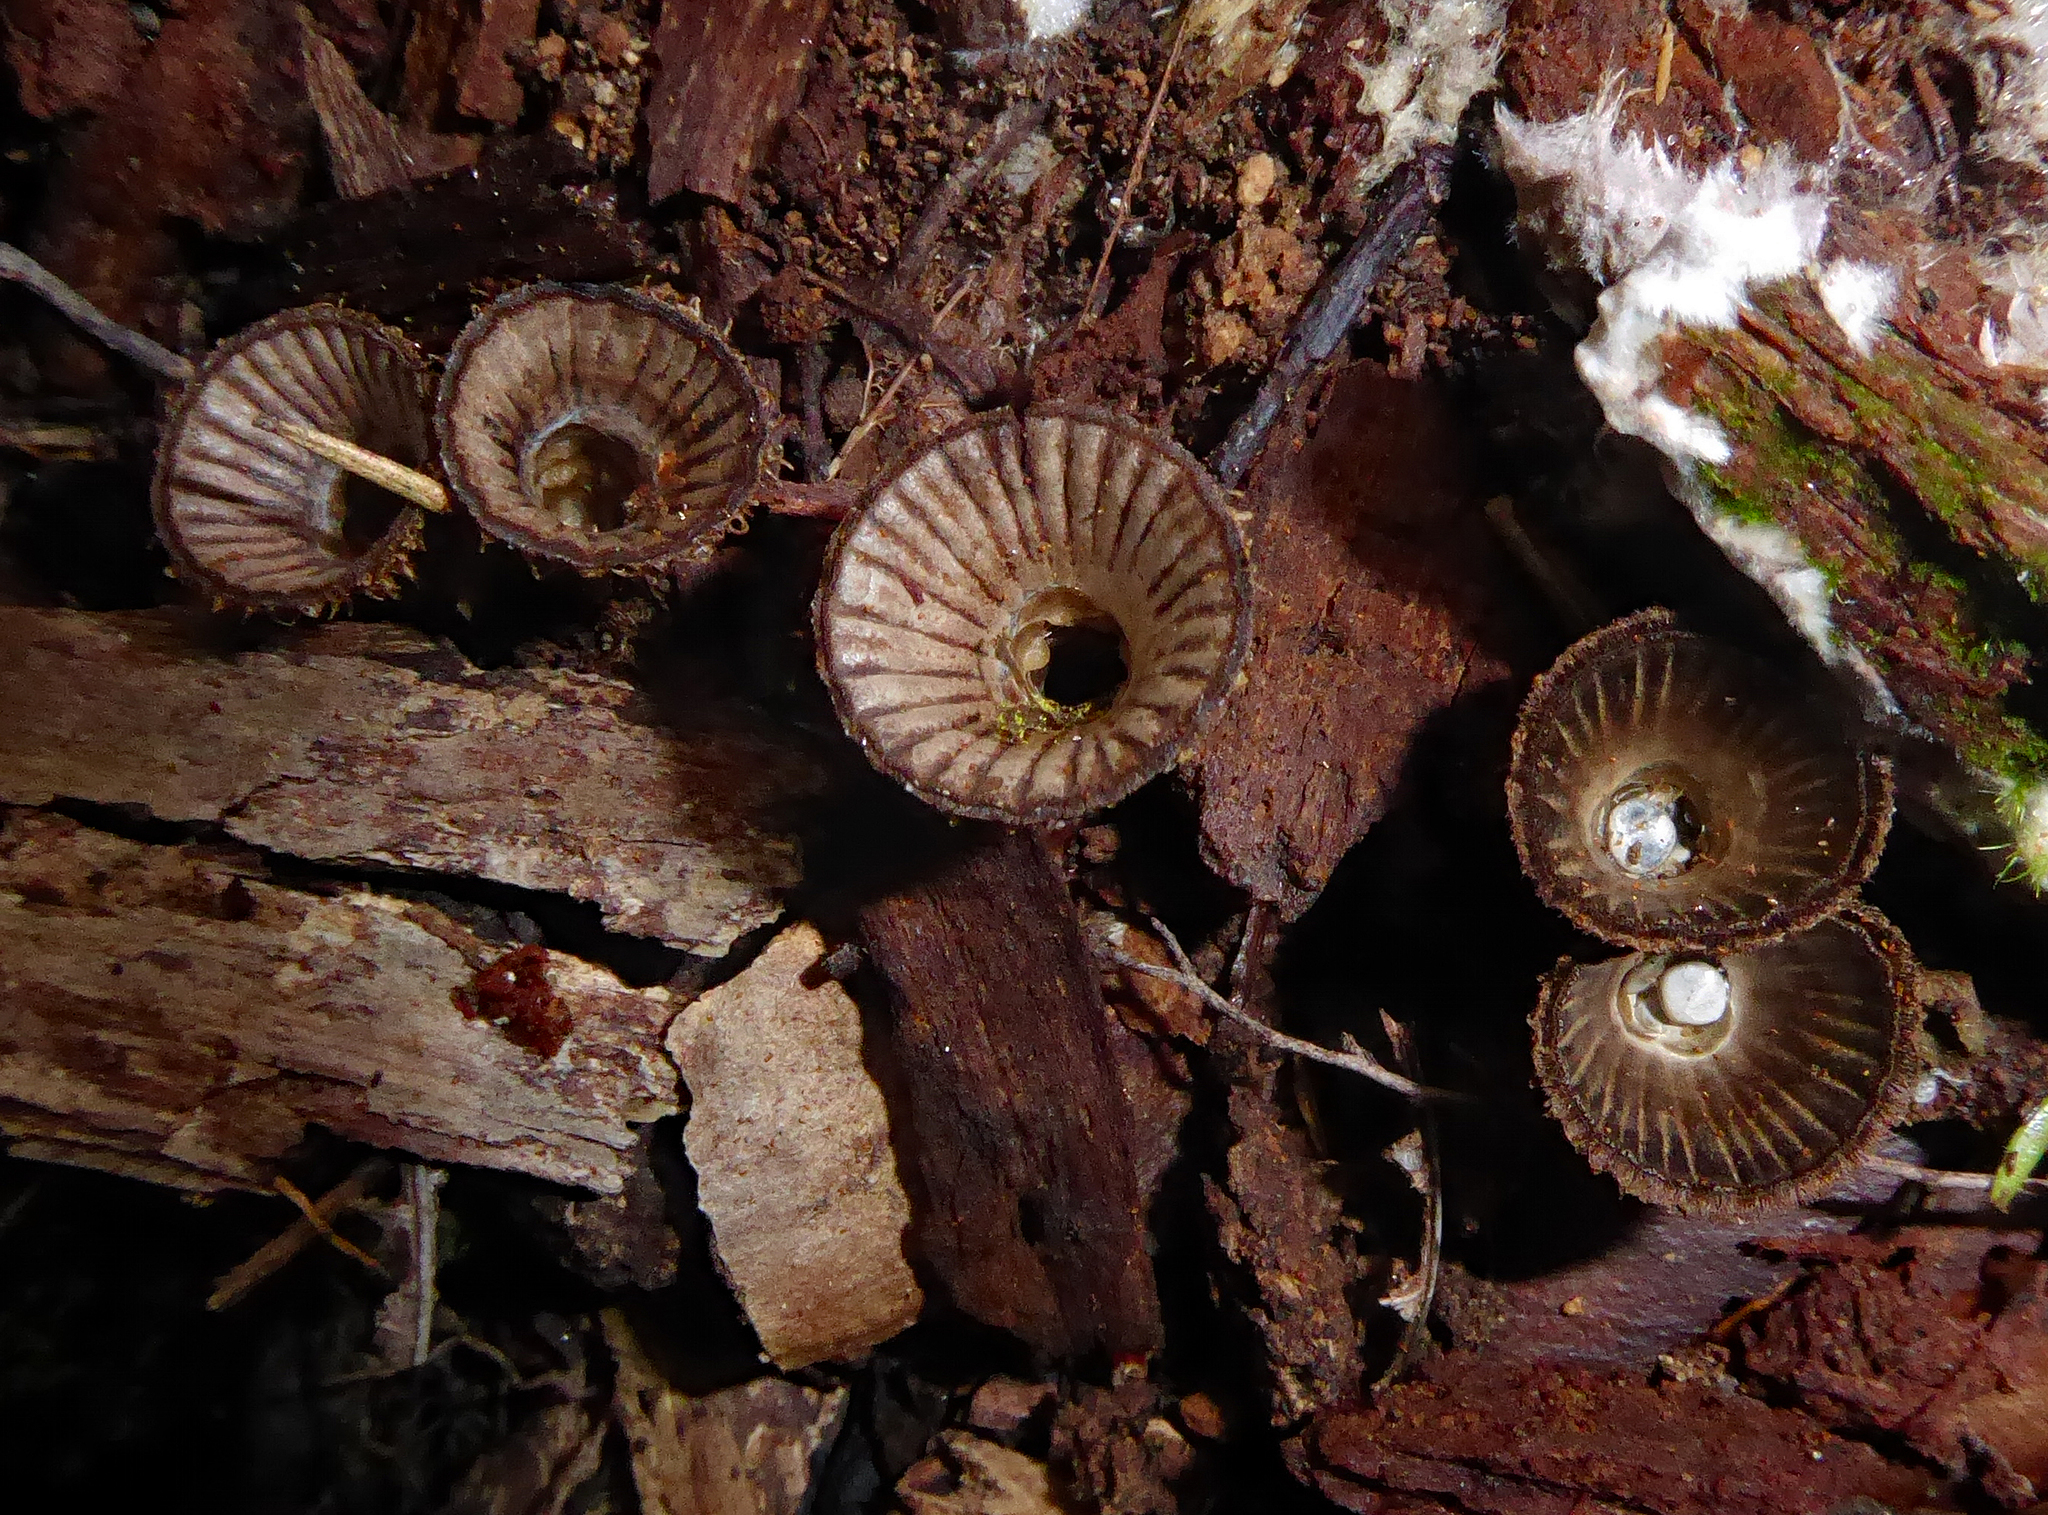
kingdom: Fungi
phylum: Basidiomycota
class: Agaricomycetes
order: Agaricales
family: Agaricaceae
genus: Cyathus
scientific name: Cyathus striatus
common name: Fluted bird's nest
